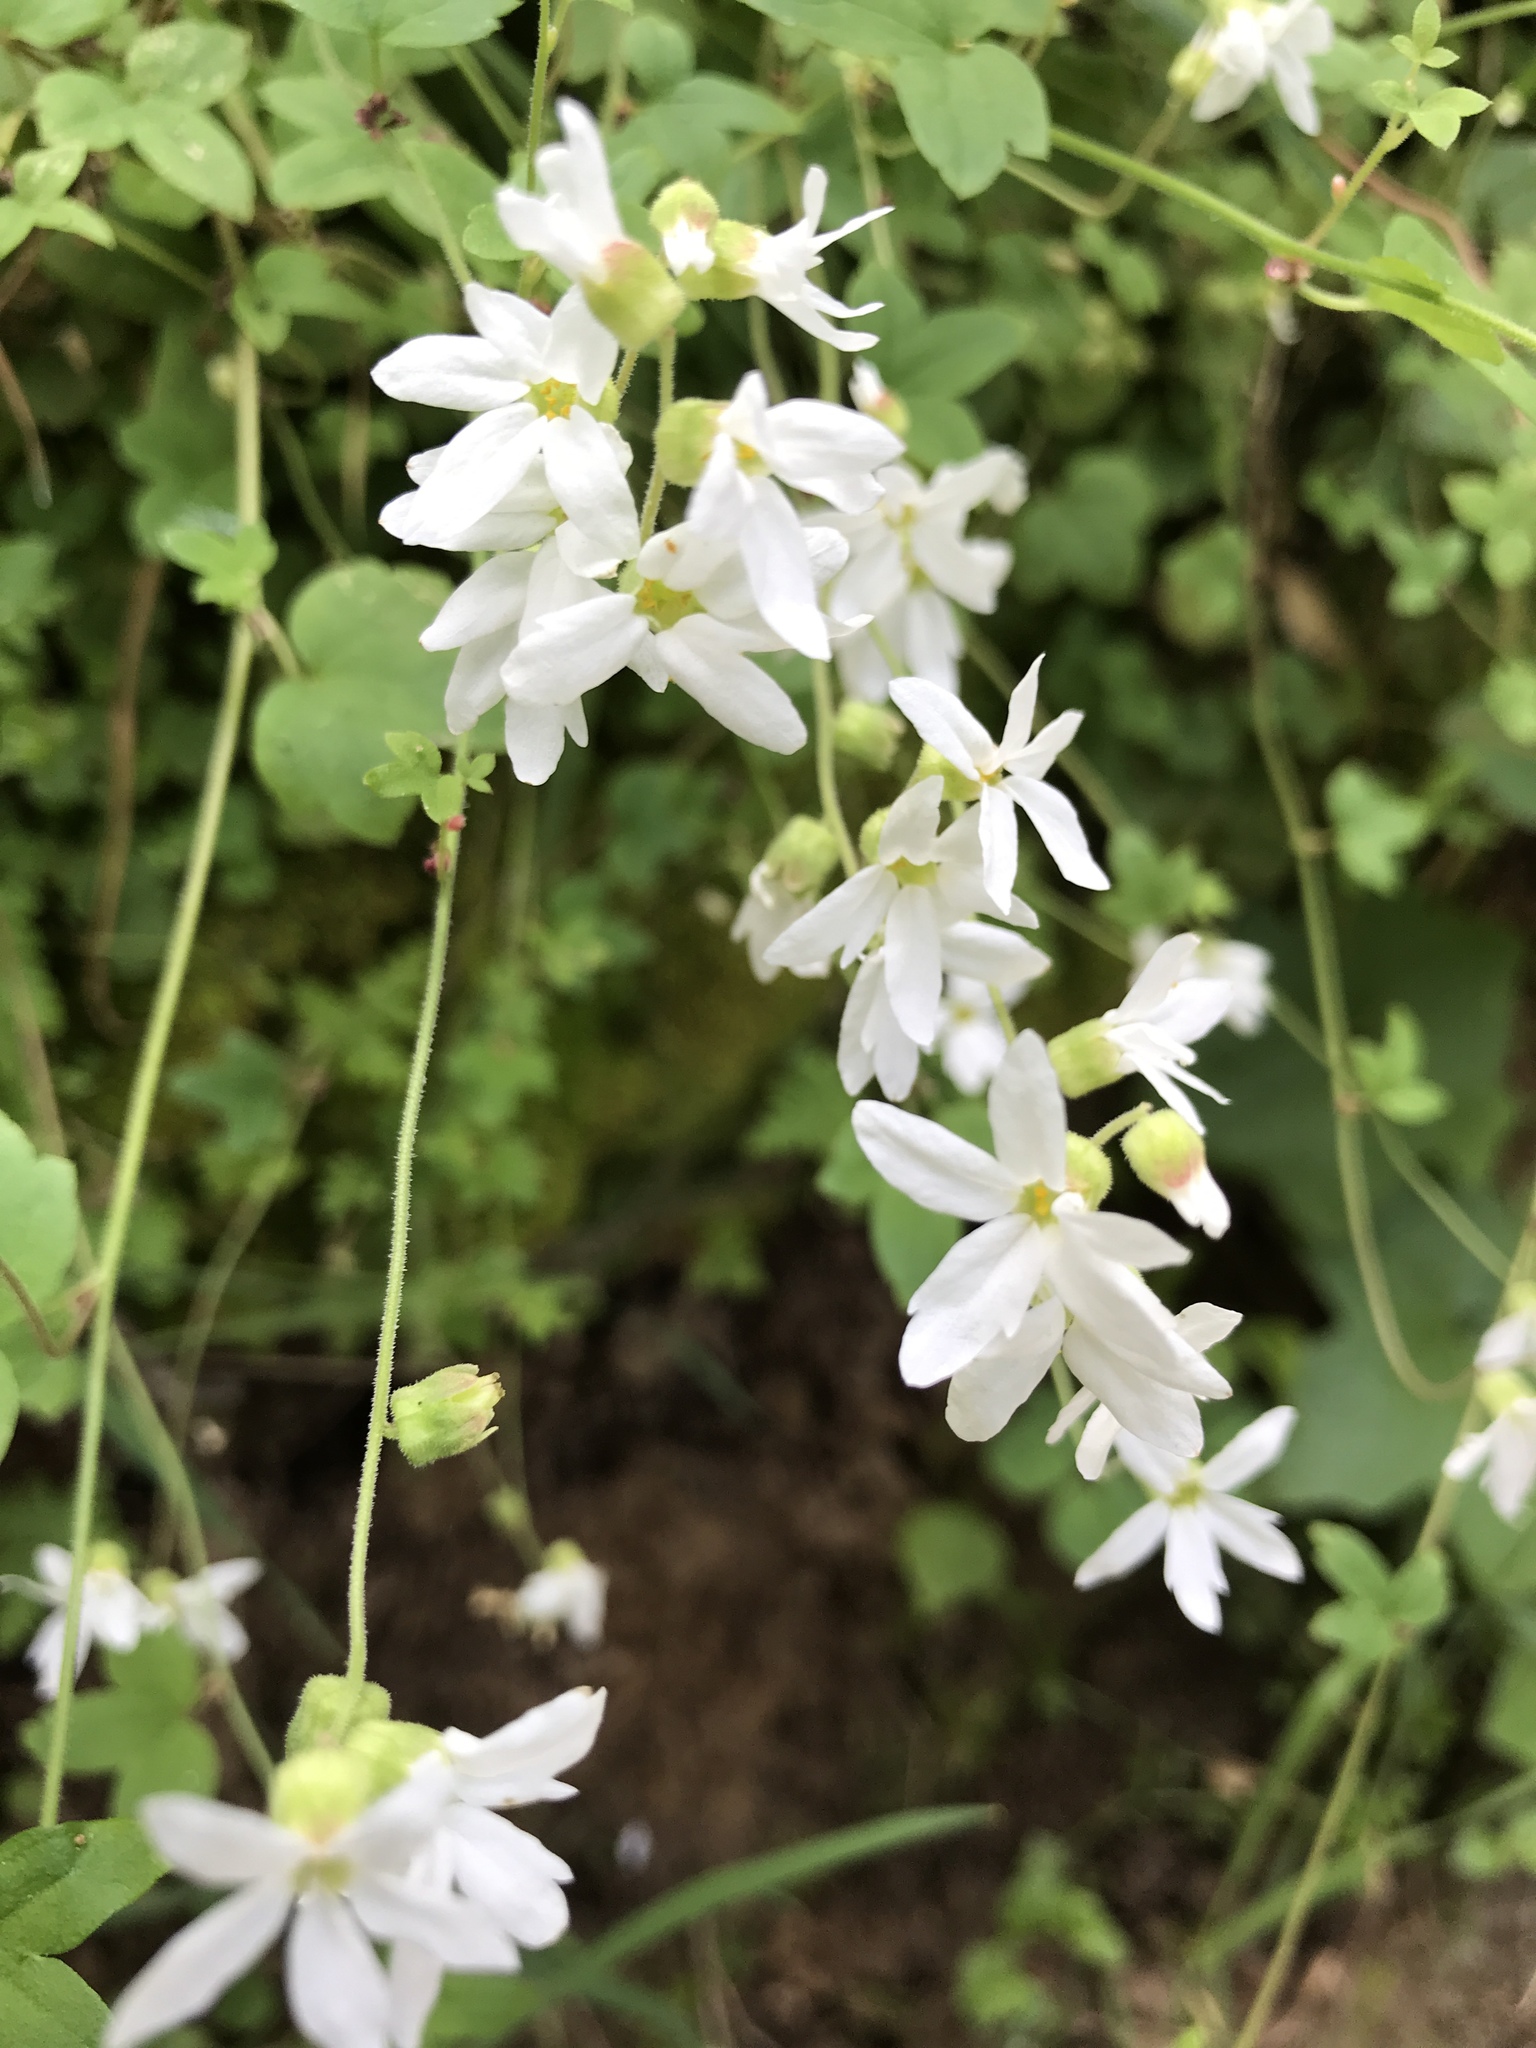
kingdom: Plantae
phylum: Tracheophyta
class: Magnoliopsida
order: Saxifragales
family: Saxifragaceae
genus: Lithophragma
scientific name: Lithophragma heterophyllum
